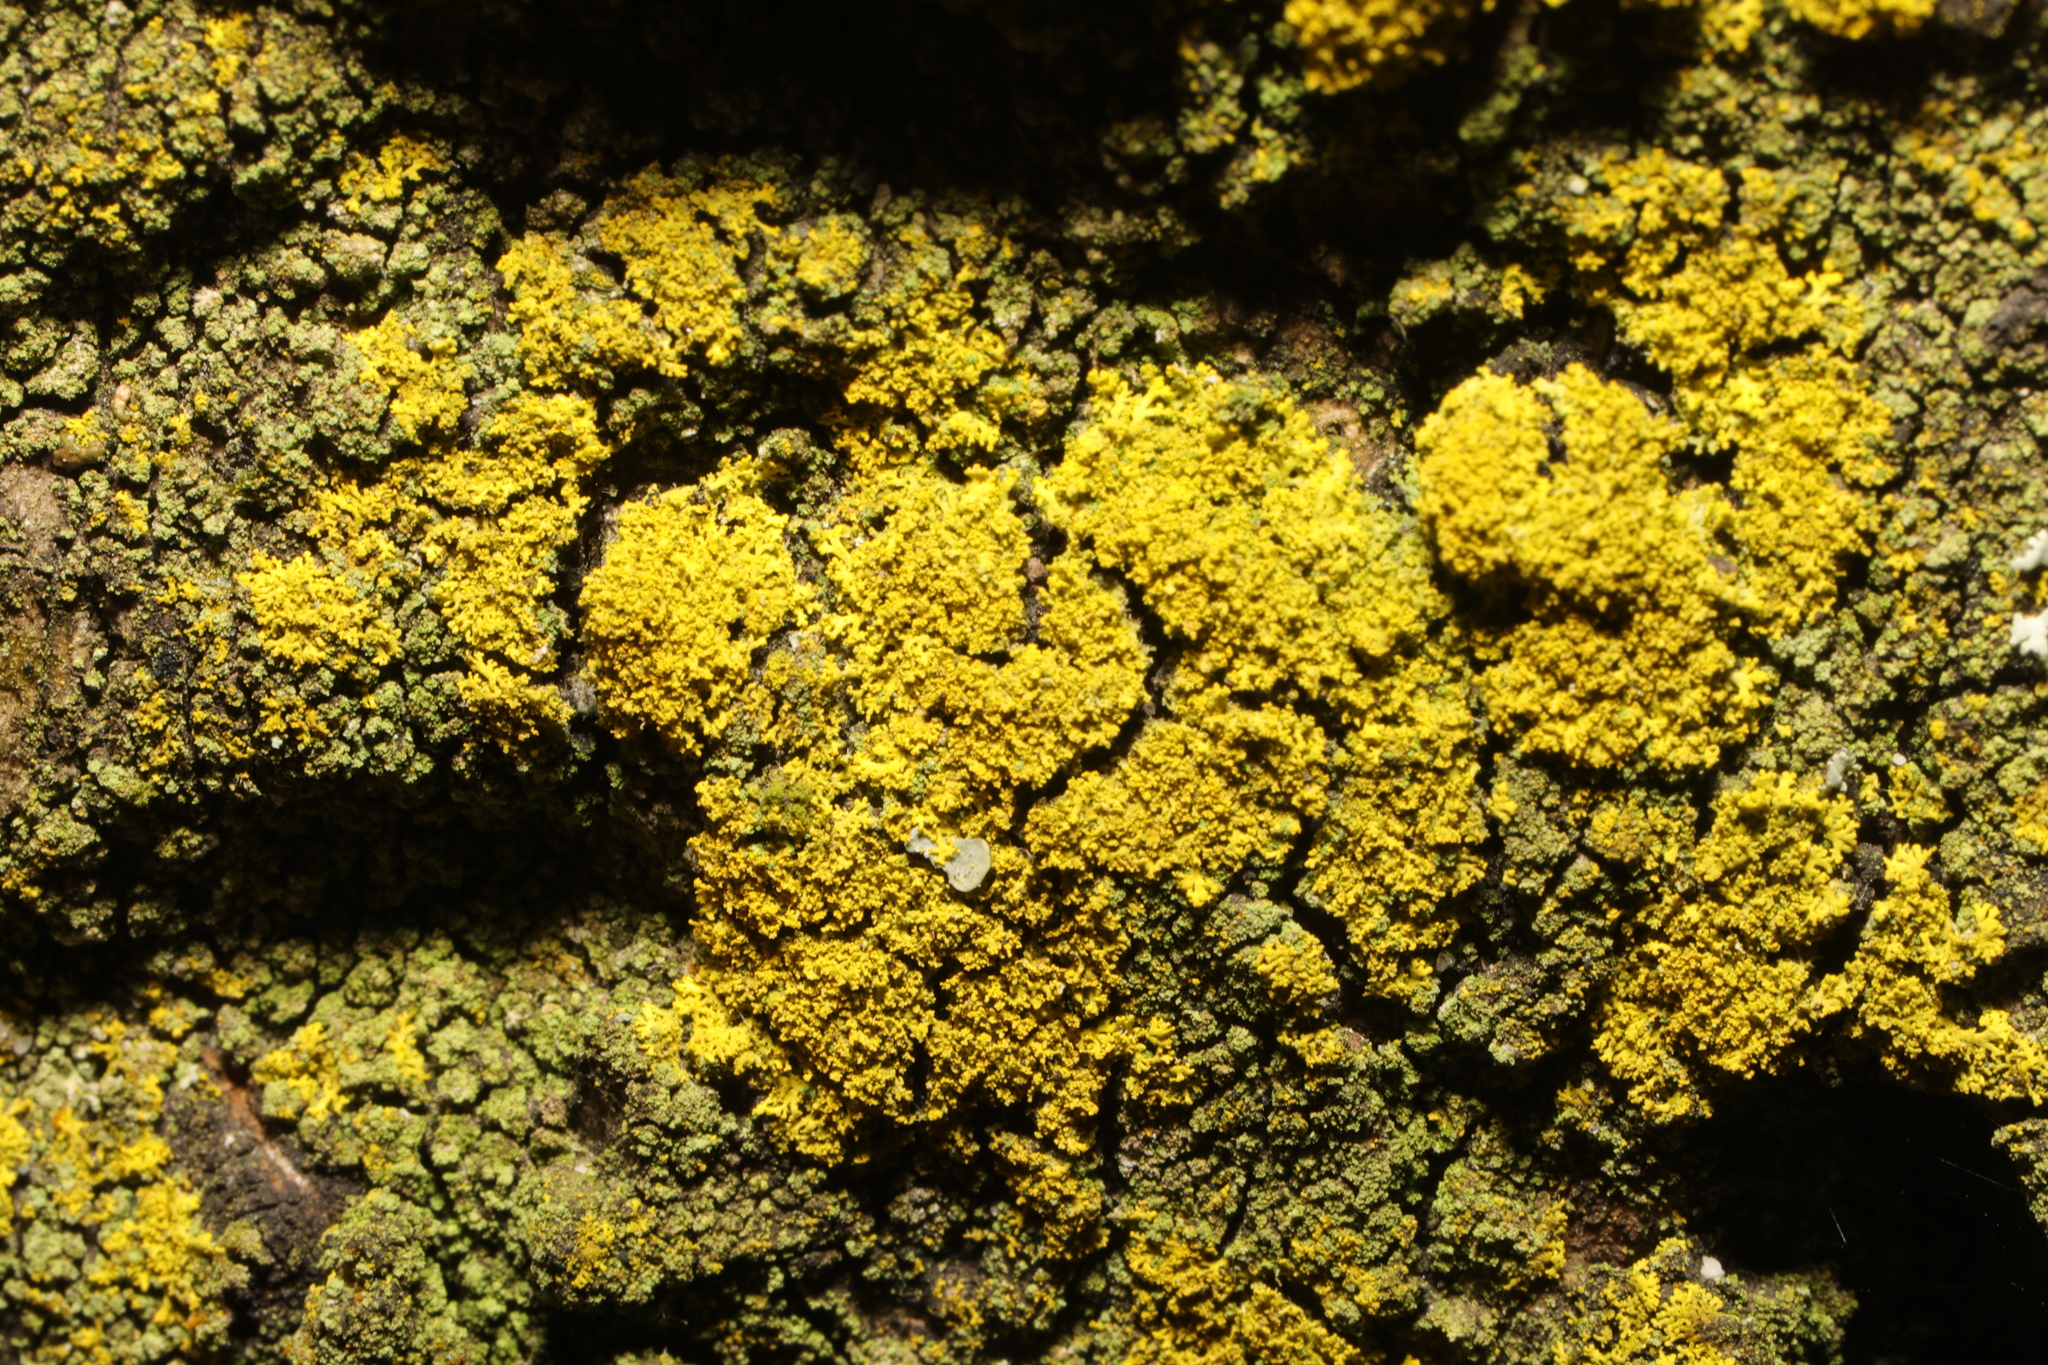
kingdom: Fungi
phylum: Ascomycota
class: Candelariomycetes
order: Candelariales
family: Candelariaceae
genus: Candelaria
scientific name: Candelaria concolor
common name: Candleflame lichen
